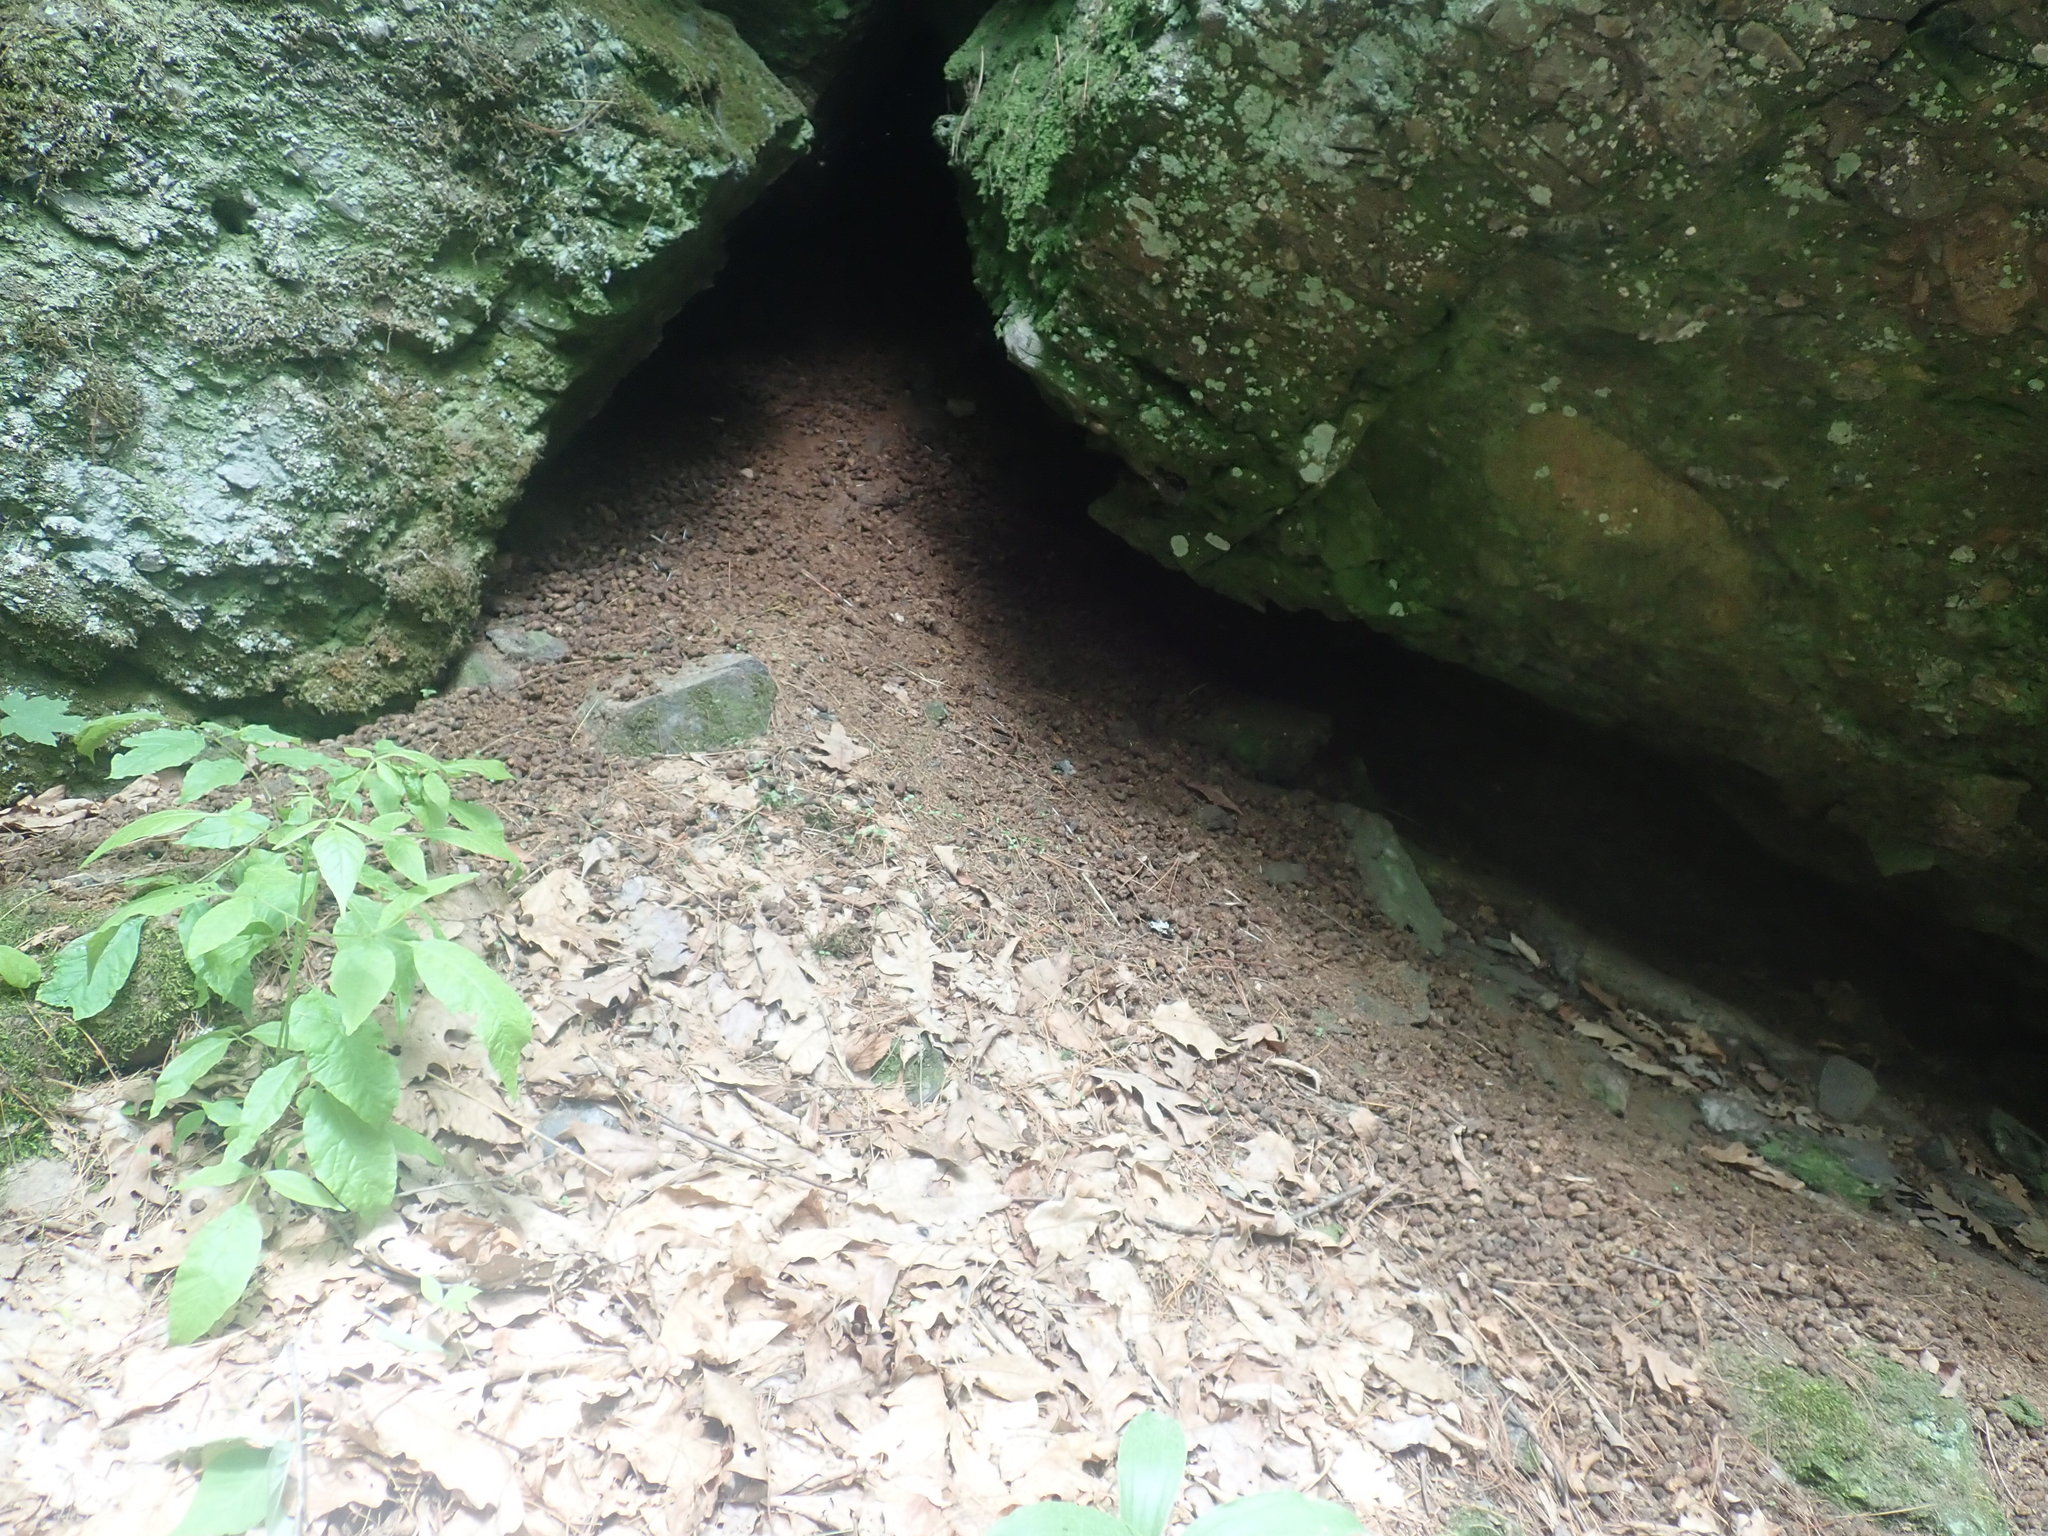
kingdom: Animalia
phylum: Chordata
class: Mammalia
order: Rodentia
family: Erethizontidae
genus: Erethizon
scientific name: Erethizon dorsatus
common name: North american porcupine
